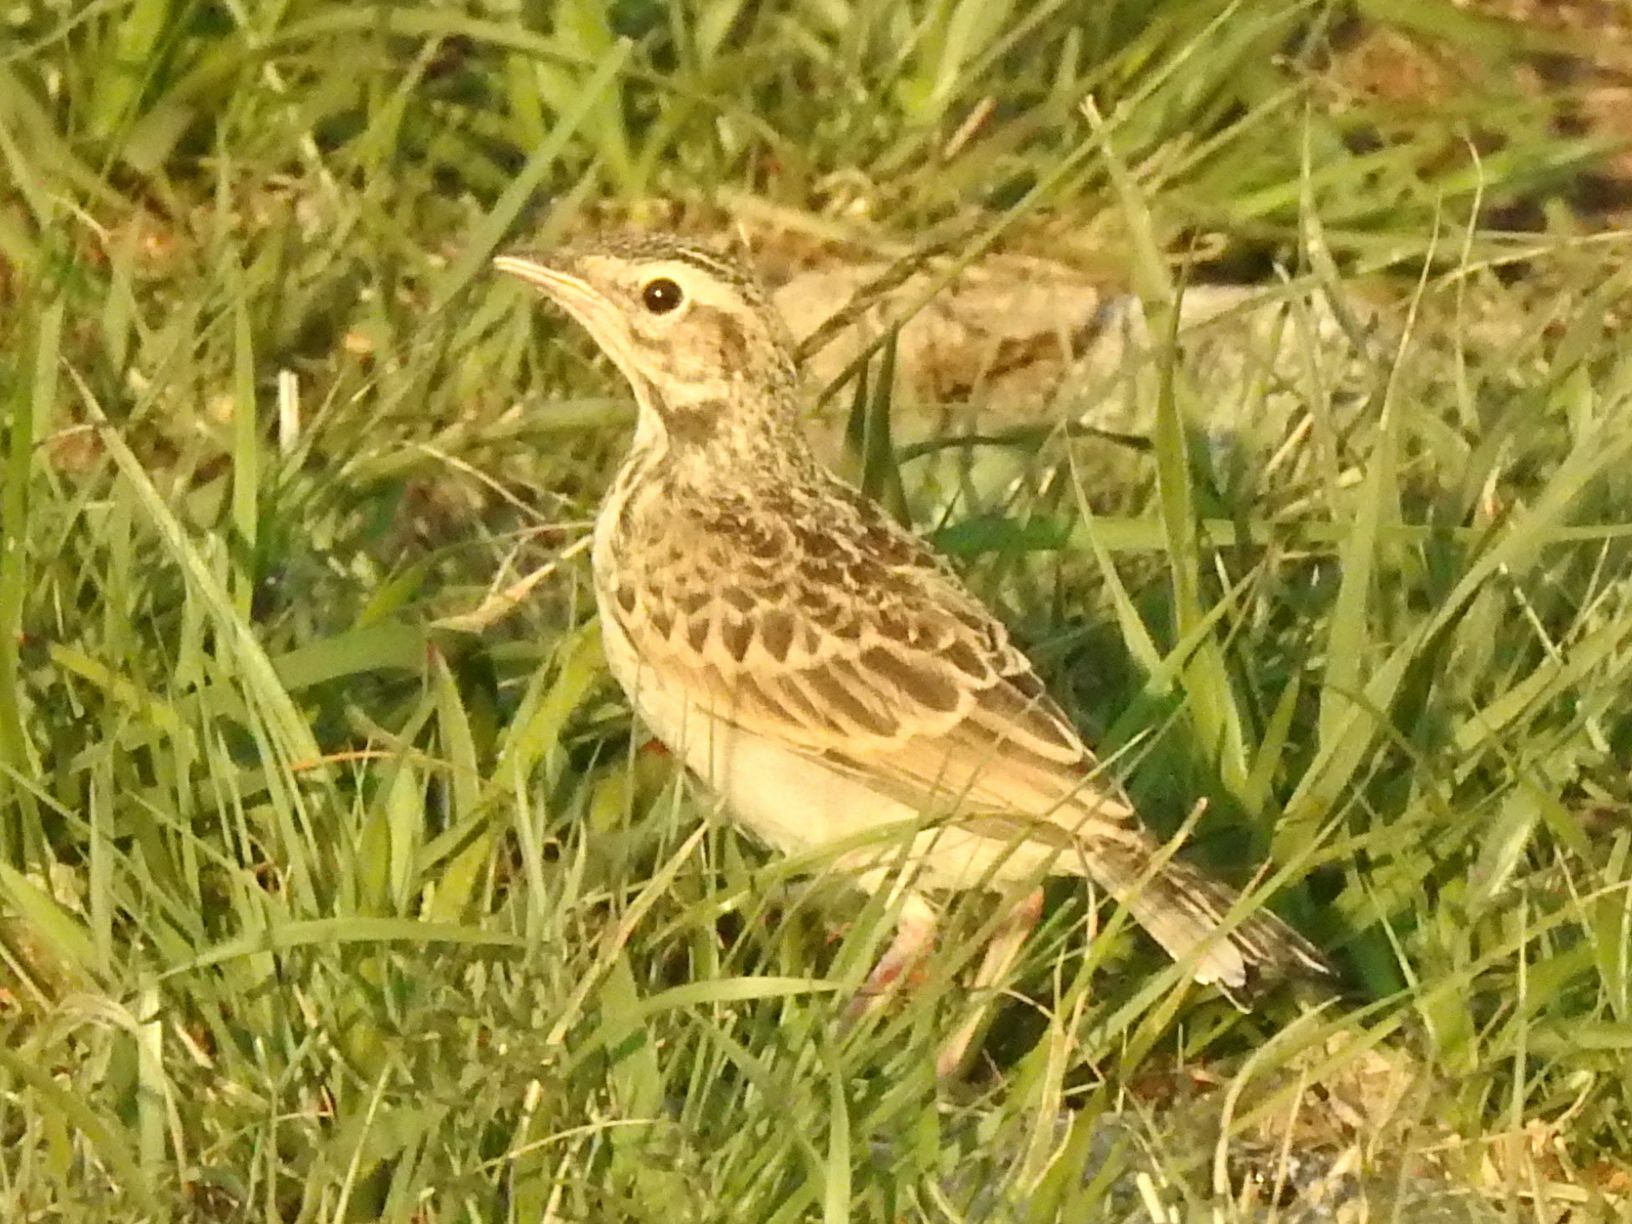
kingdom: Animalia
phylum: Chordata
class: Aves
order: Passeriformes
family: Motacillidae
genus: Anthus
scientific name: Anthus cinnamomeus
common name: African pipit
